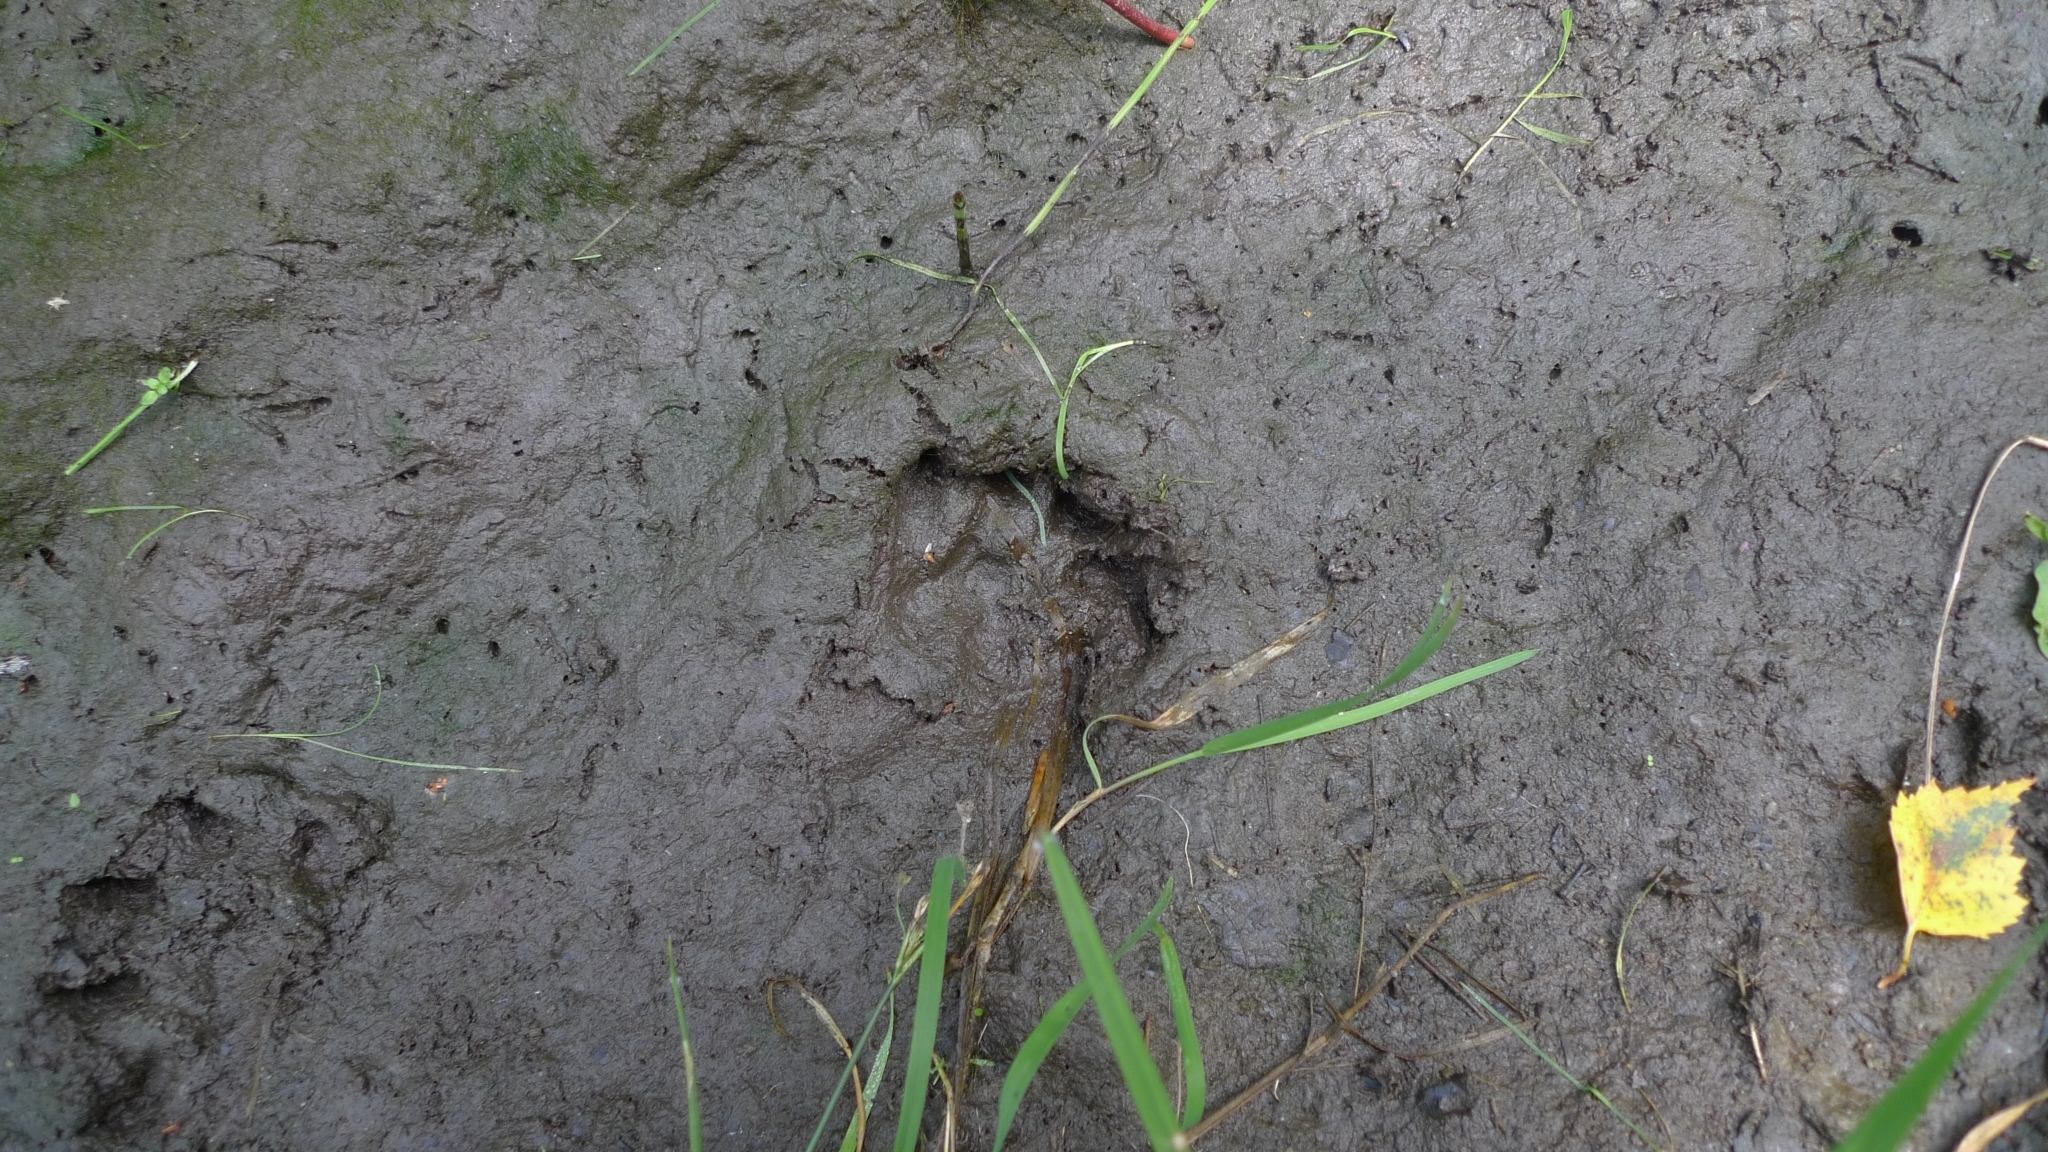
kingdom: Animalia
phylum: Chordata
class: Mammalia
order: Carnivora
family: Mustelidae
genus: Meles
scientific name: Meles meles
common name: Eurasian badger
